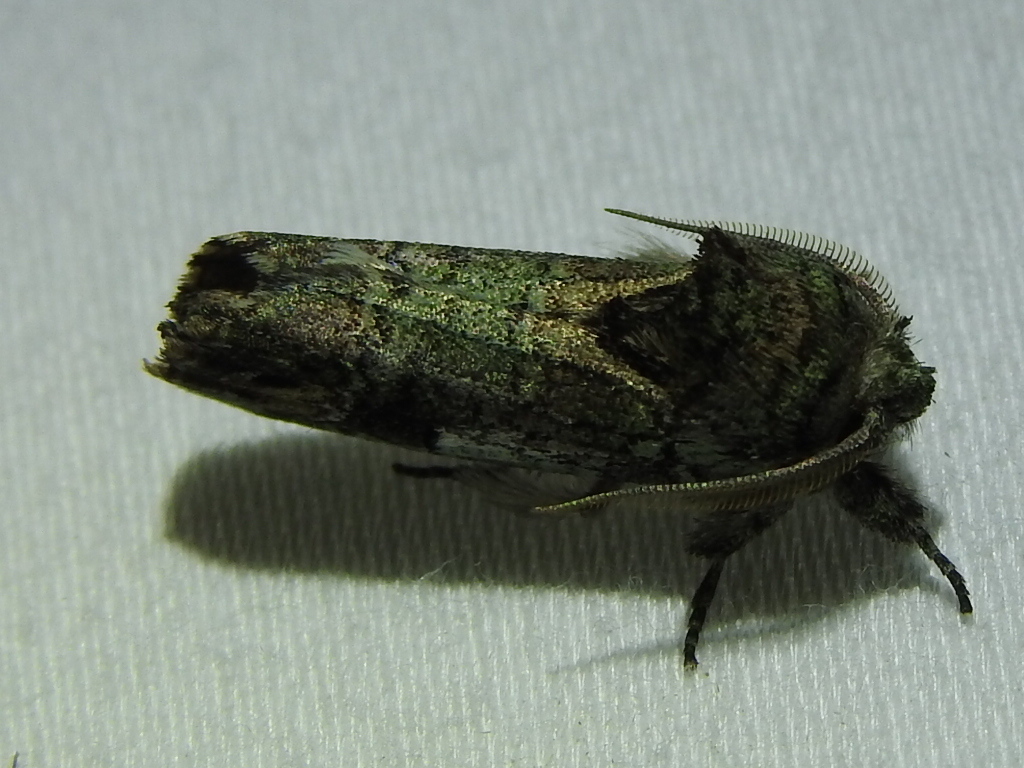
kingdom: Animalia
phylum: Arthropoda
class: Insecta
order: Lepidoptera
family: Notodontidae
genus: Schizura
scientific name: Schizura
